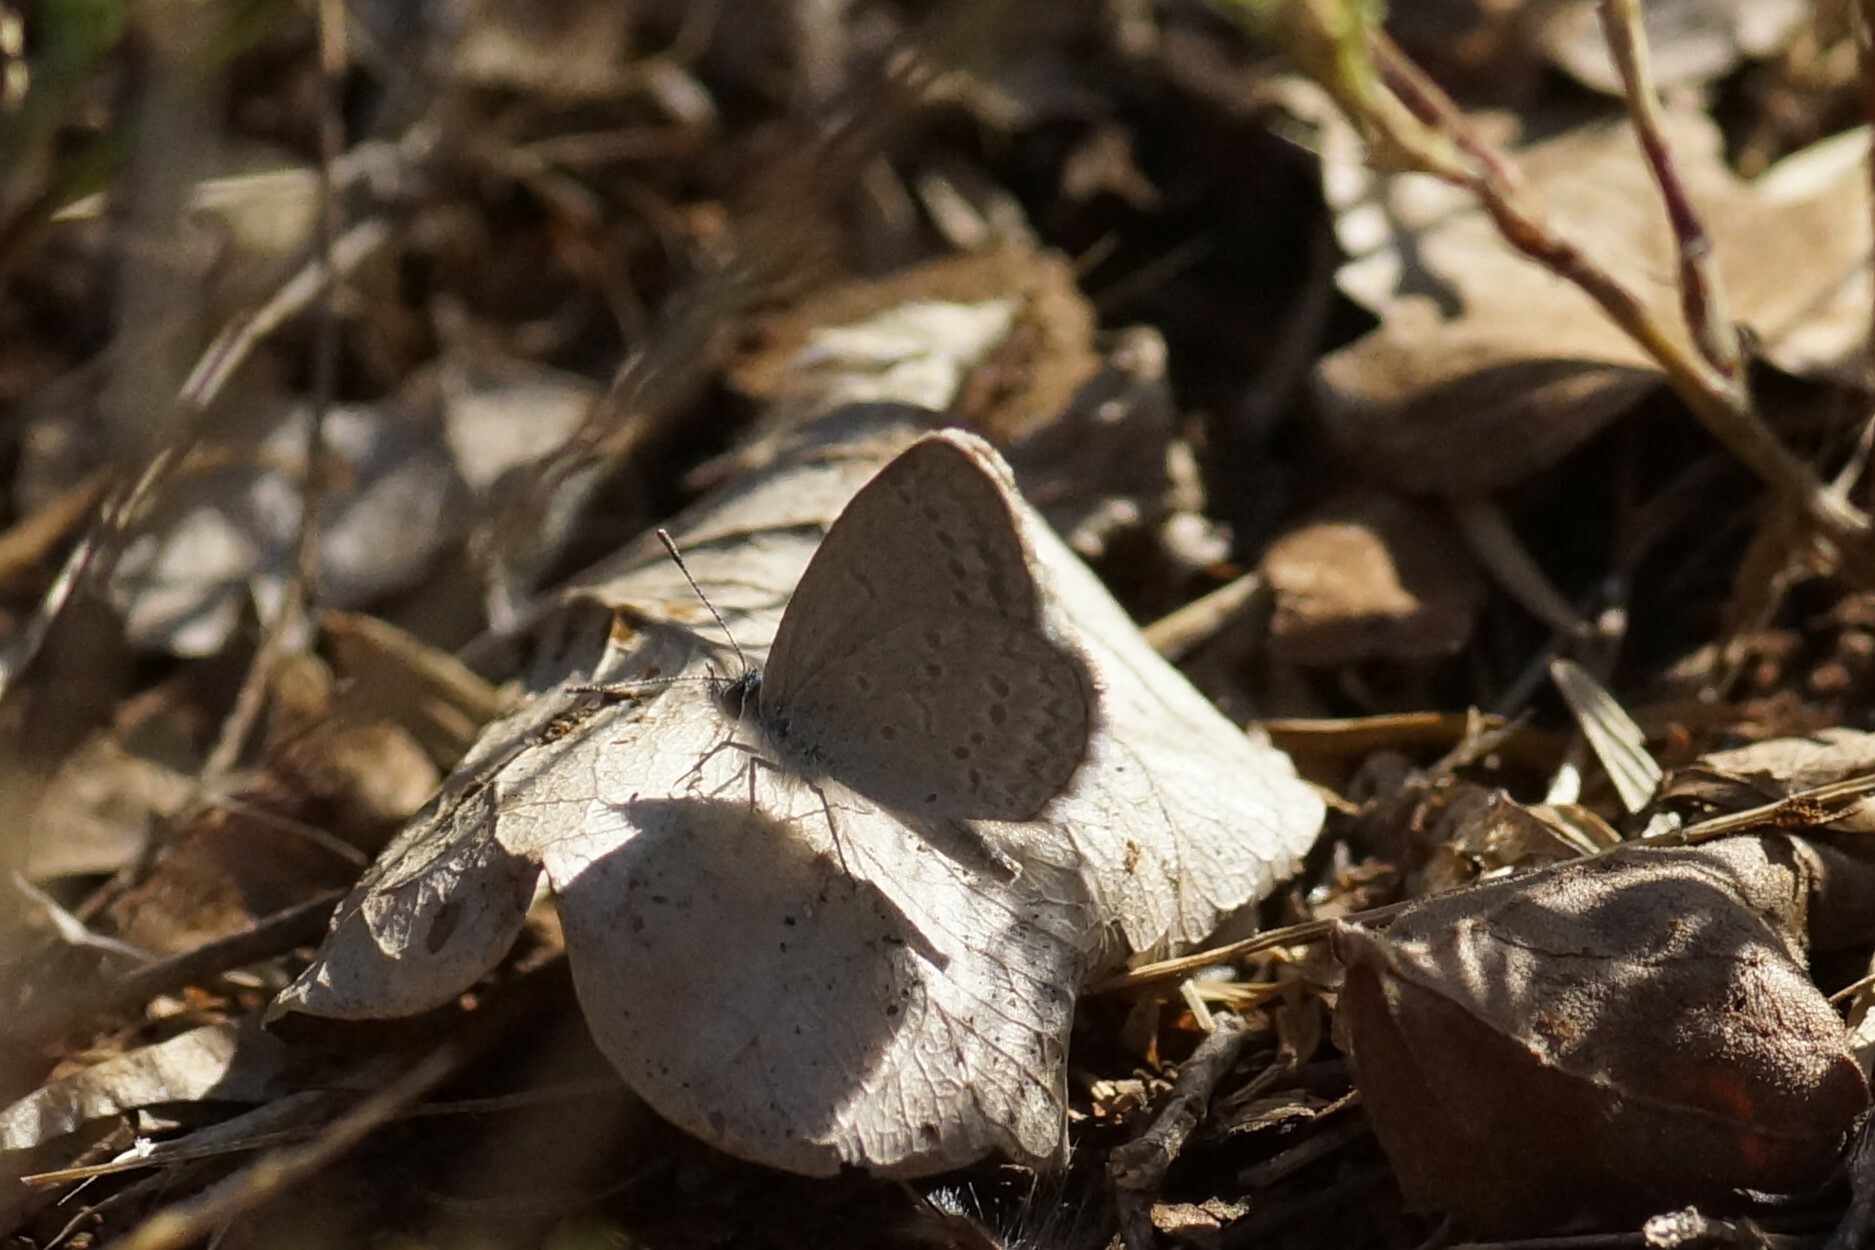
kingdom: Animalia
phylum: Arthropoda
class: Insecta
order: Lepidoptera
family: Lycaenidae
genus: Zizina
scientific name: Zizina otis
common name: Lesser grass blue
